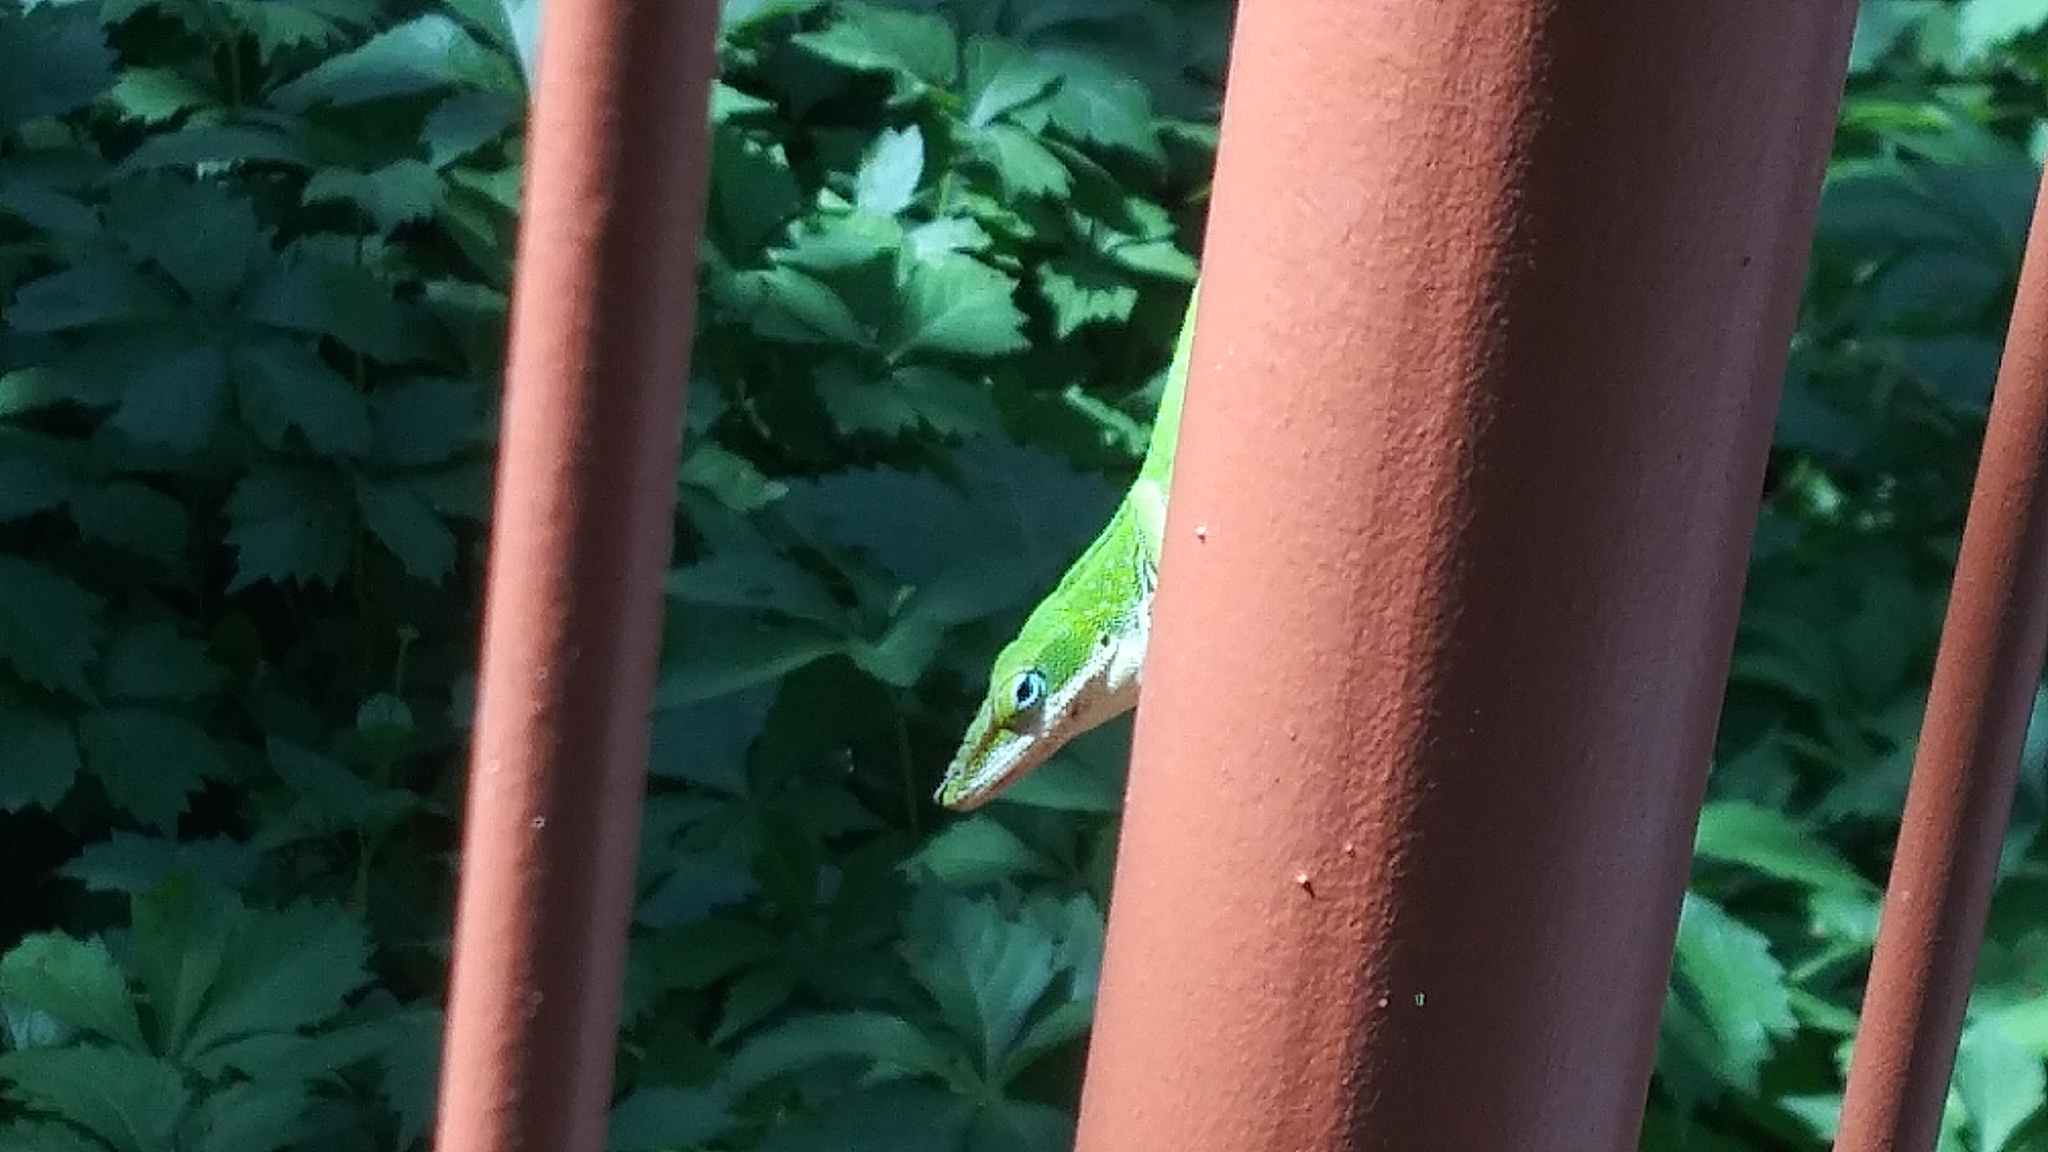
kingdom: Animalia
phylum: Chordata
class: Squamata
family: Dactyloidae
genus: Anolis
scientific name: Anolis carolinensis
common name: Green anole
